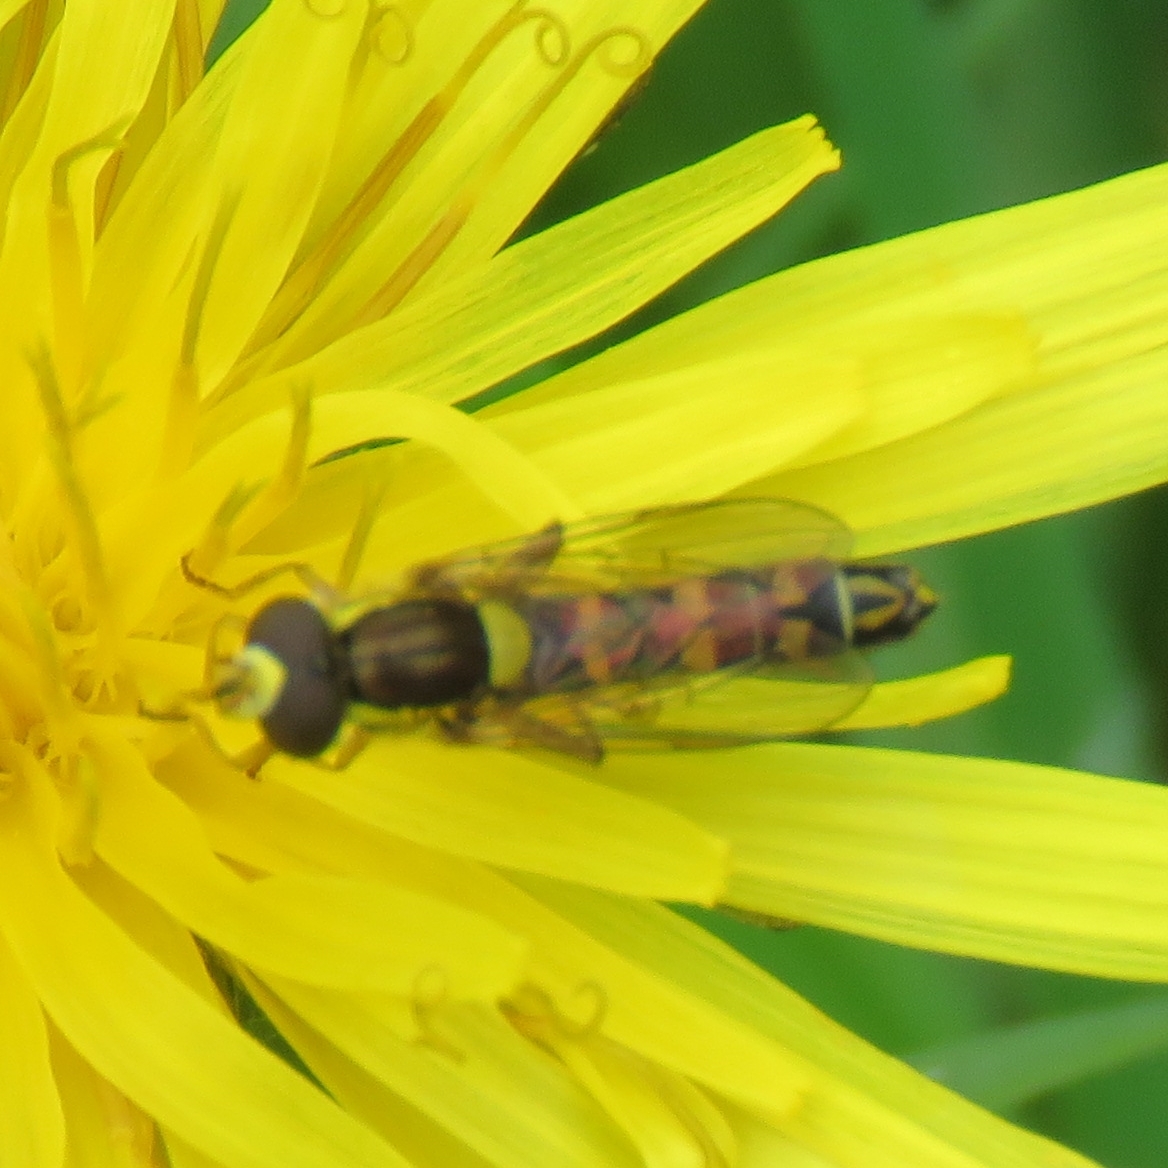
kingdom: Animalia
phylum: Arthropoda
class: Insecta
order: Diptera
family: Syrphidae
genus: Sphaerophoria
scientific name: Sphaerophoria scripta
